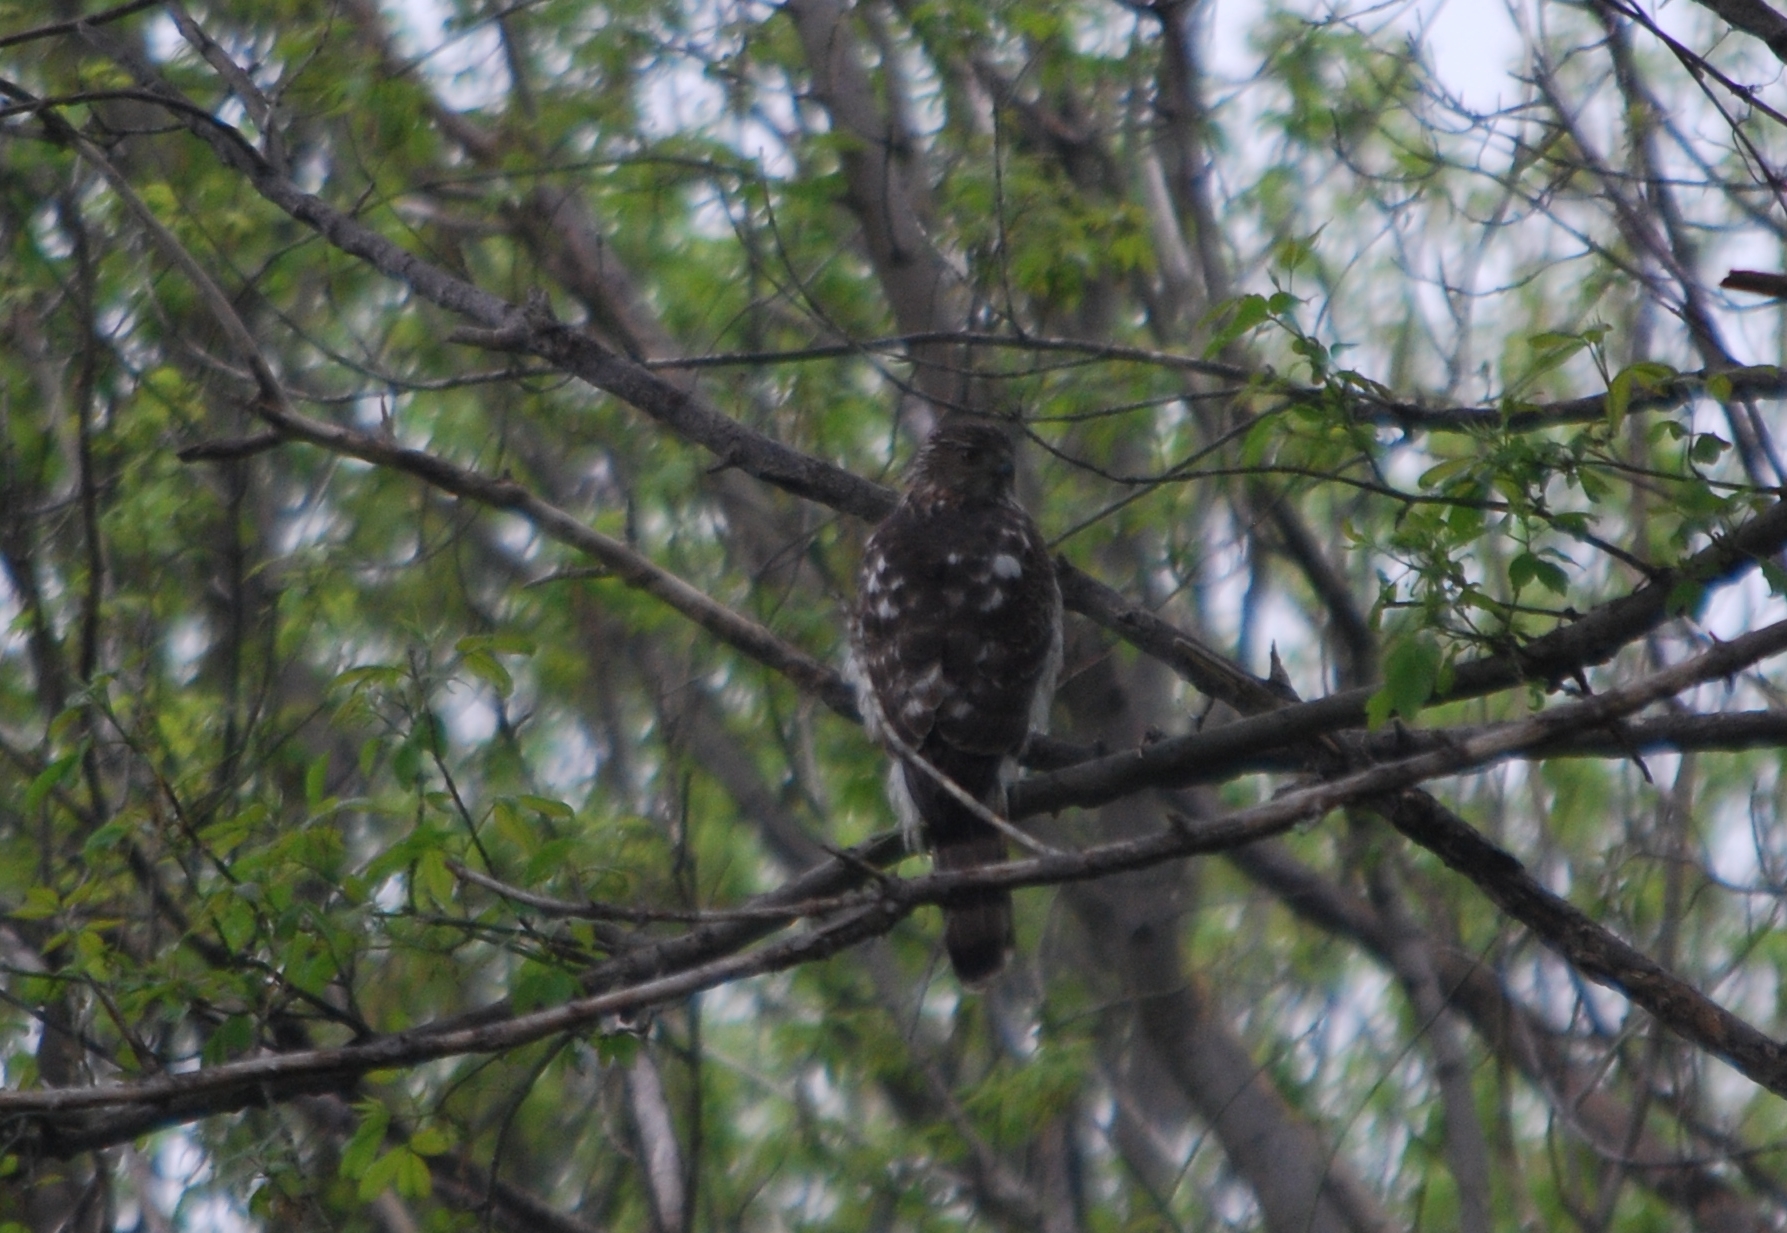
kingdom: Animalia
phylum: Chordata
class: Aves
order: Accipitriformes
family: Accipitridae
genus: Accipiter
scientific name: Accipiter cooperii
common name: Cooper's hawk
